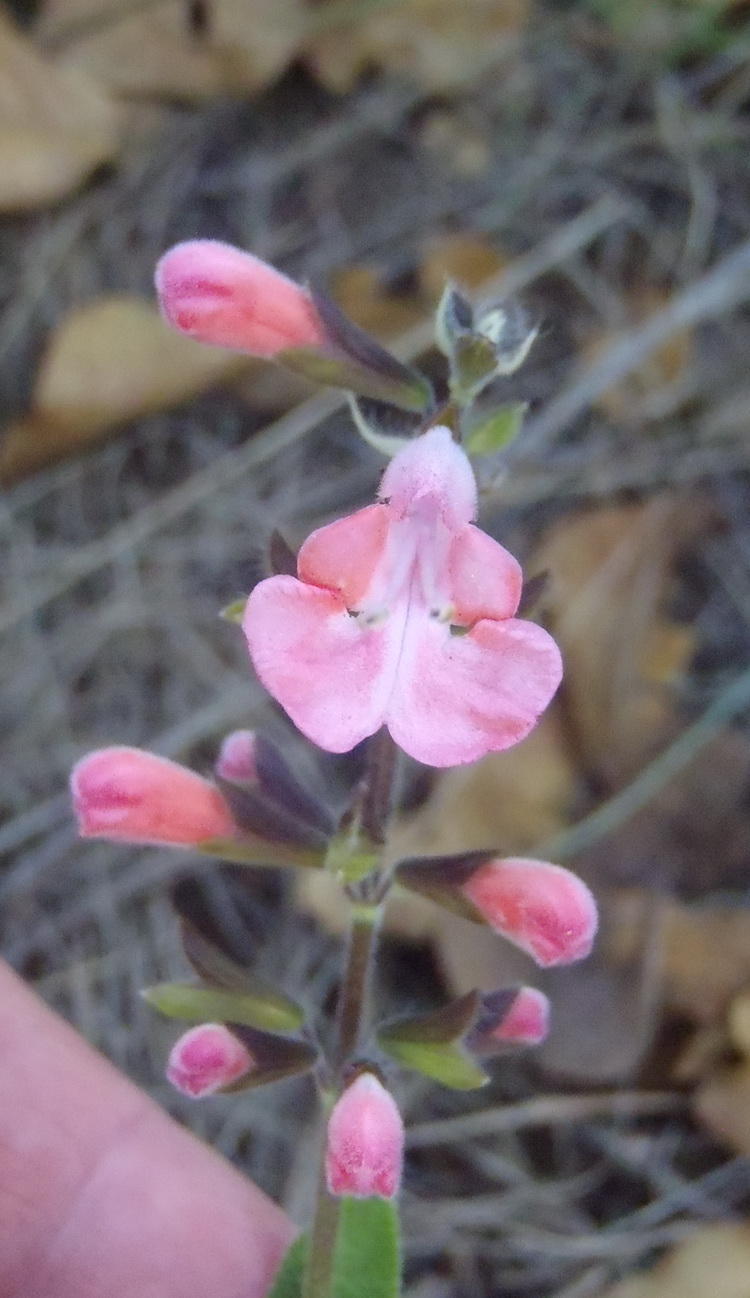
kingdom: Plantae
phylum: Tracheophyta
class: Magnoliopsida
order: Lamiales
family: Lamiaceae
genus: Salvia
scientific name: Salvia coccinea
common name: Blood sage
